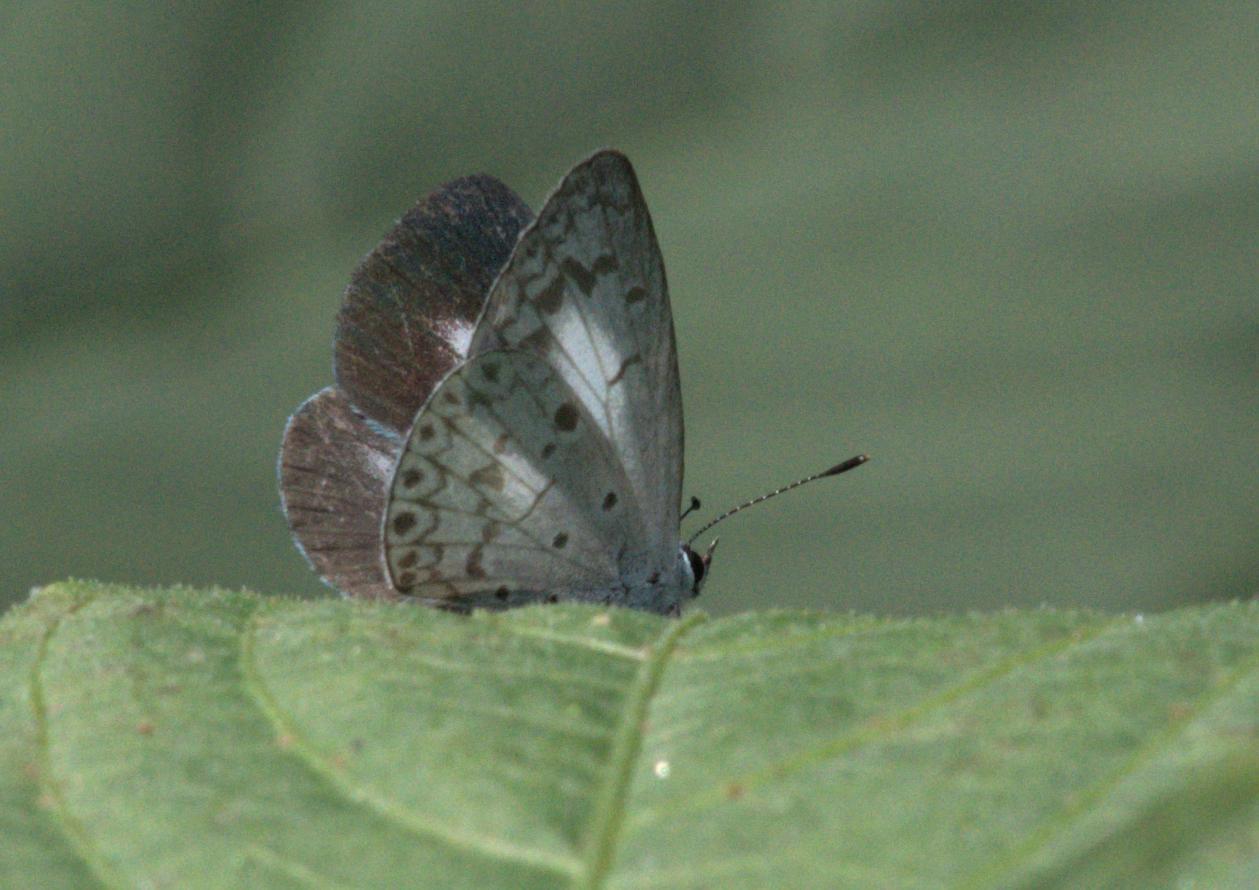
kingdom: Animalia
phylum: Arthropoda
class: Insecta
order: Lepidoptera
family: Lycaenidae
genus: Acytolepis
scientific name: Acytolepis puspa
